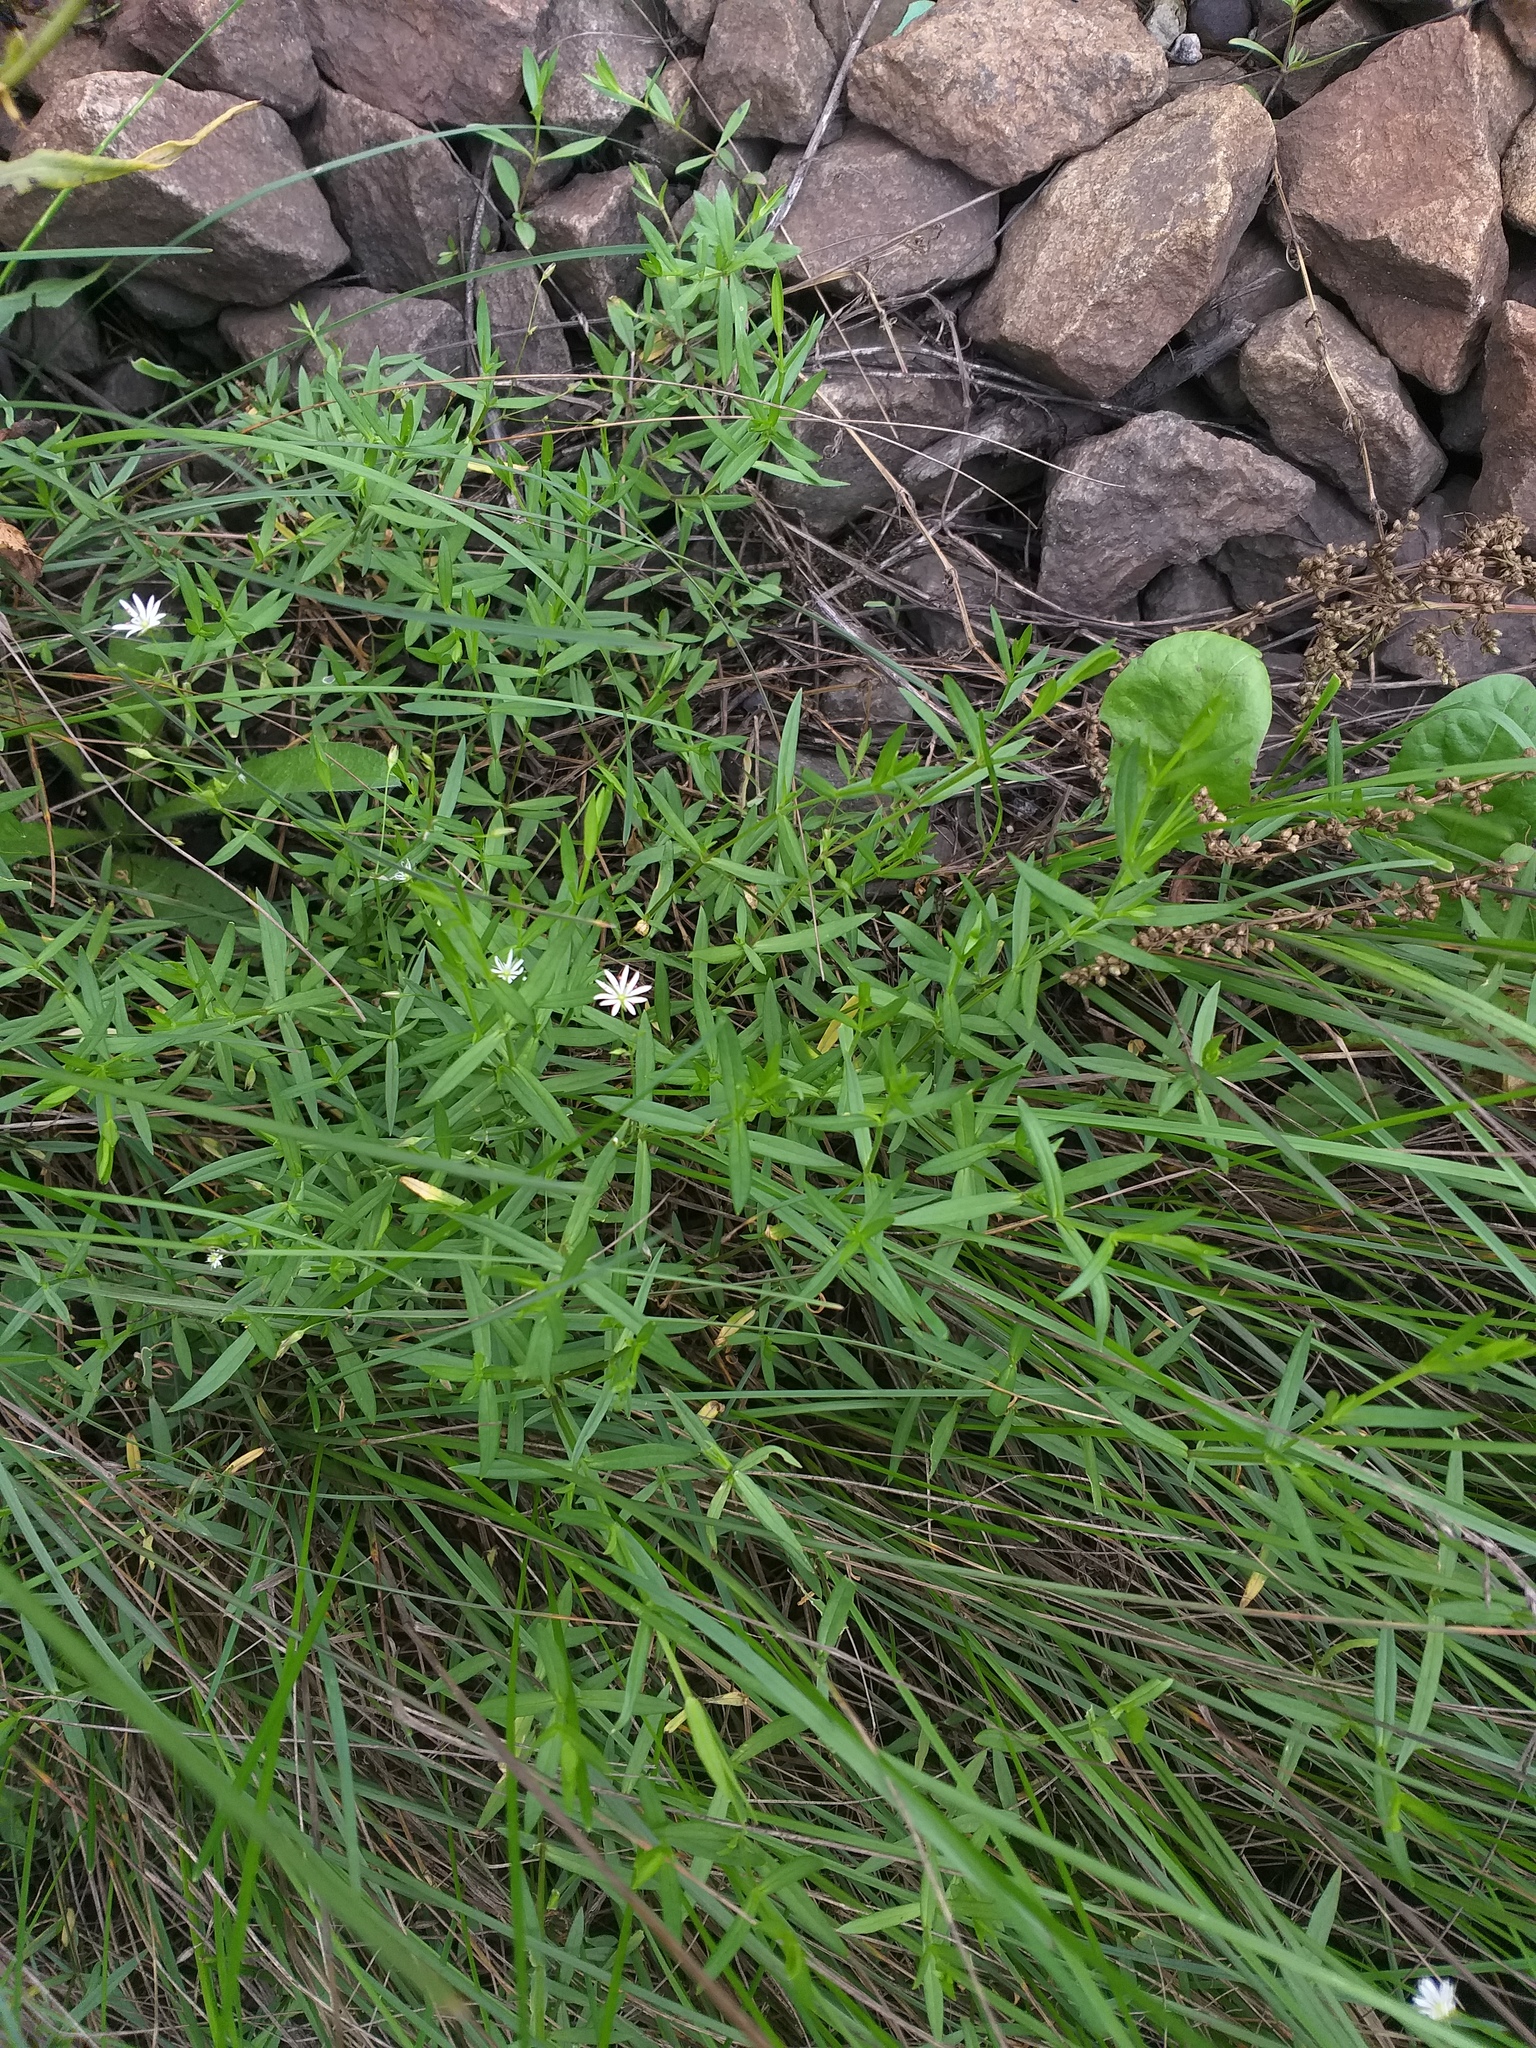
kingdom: Plantae
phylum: Tracheophyta
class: Magnoliopsida
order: Caryophyllales
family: Caryophyllaceae
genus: Stellaria
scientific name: Stellaria graminea
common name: Grass-like starwort
